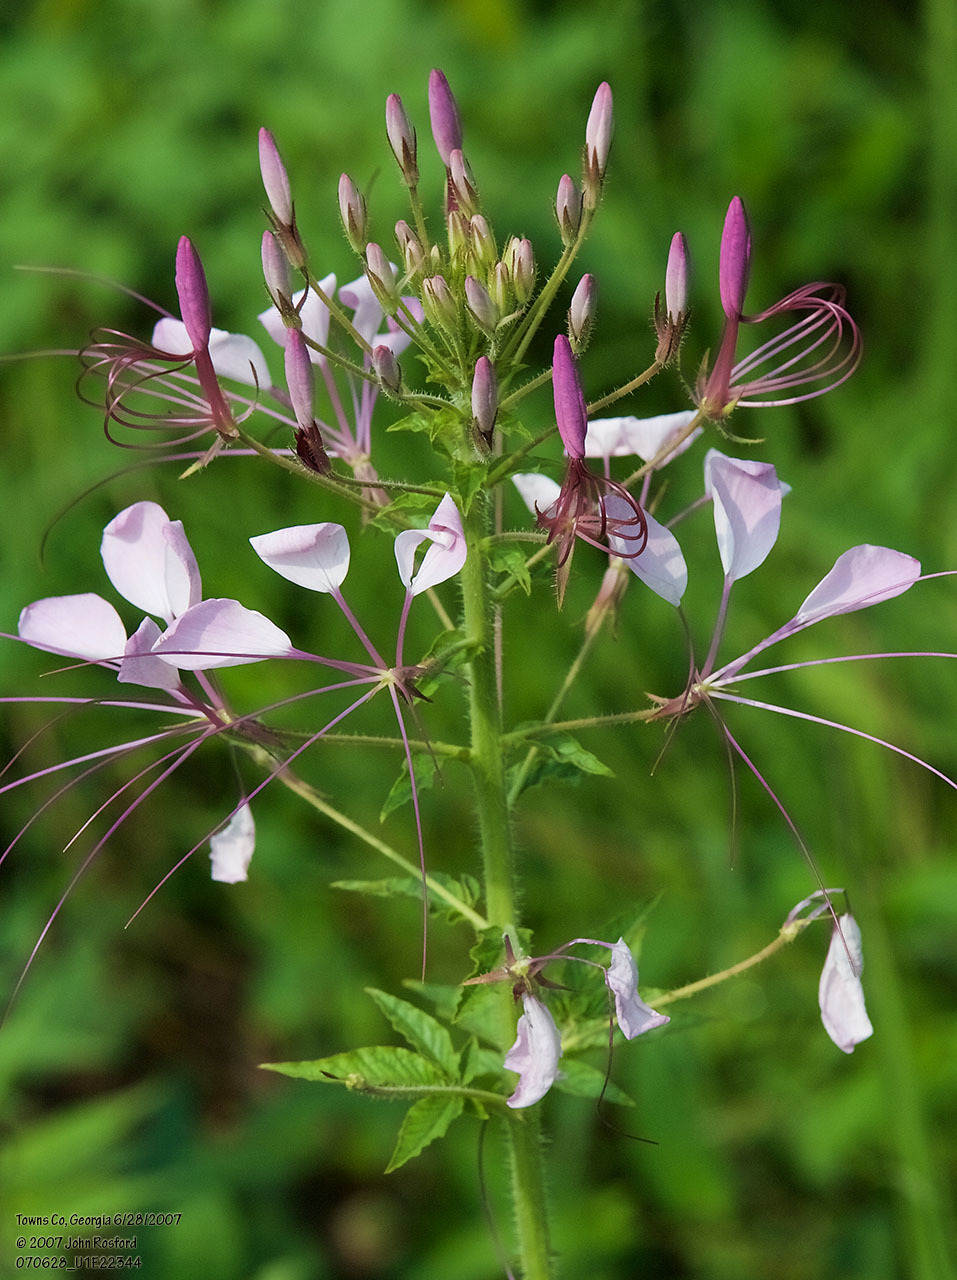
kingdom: Plantae
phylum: Tracheophyta
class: Magnoliopsida
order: Brassicales
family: Cleomaceae
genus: Tarenaya
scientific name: Tarenaya houtteana
